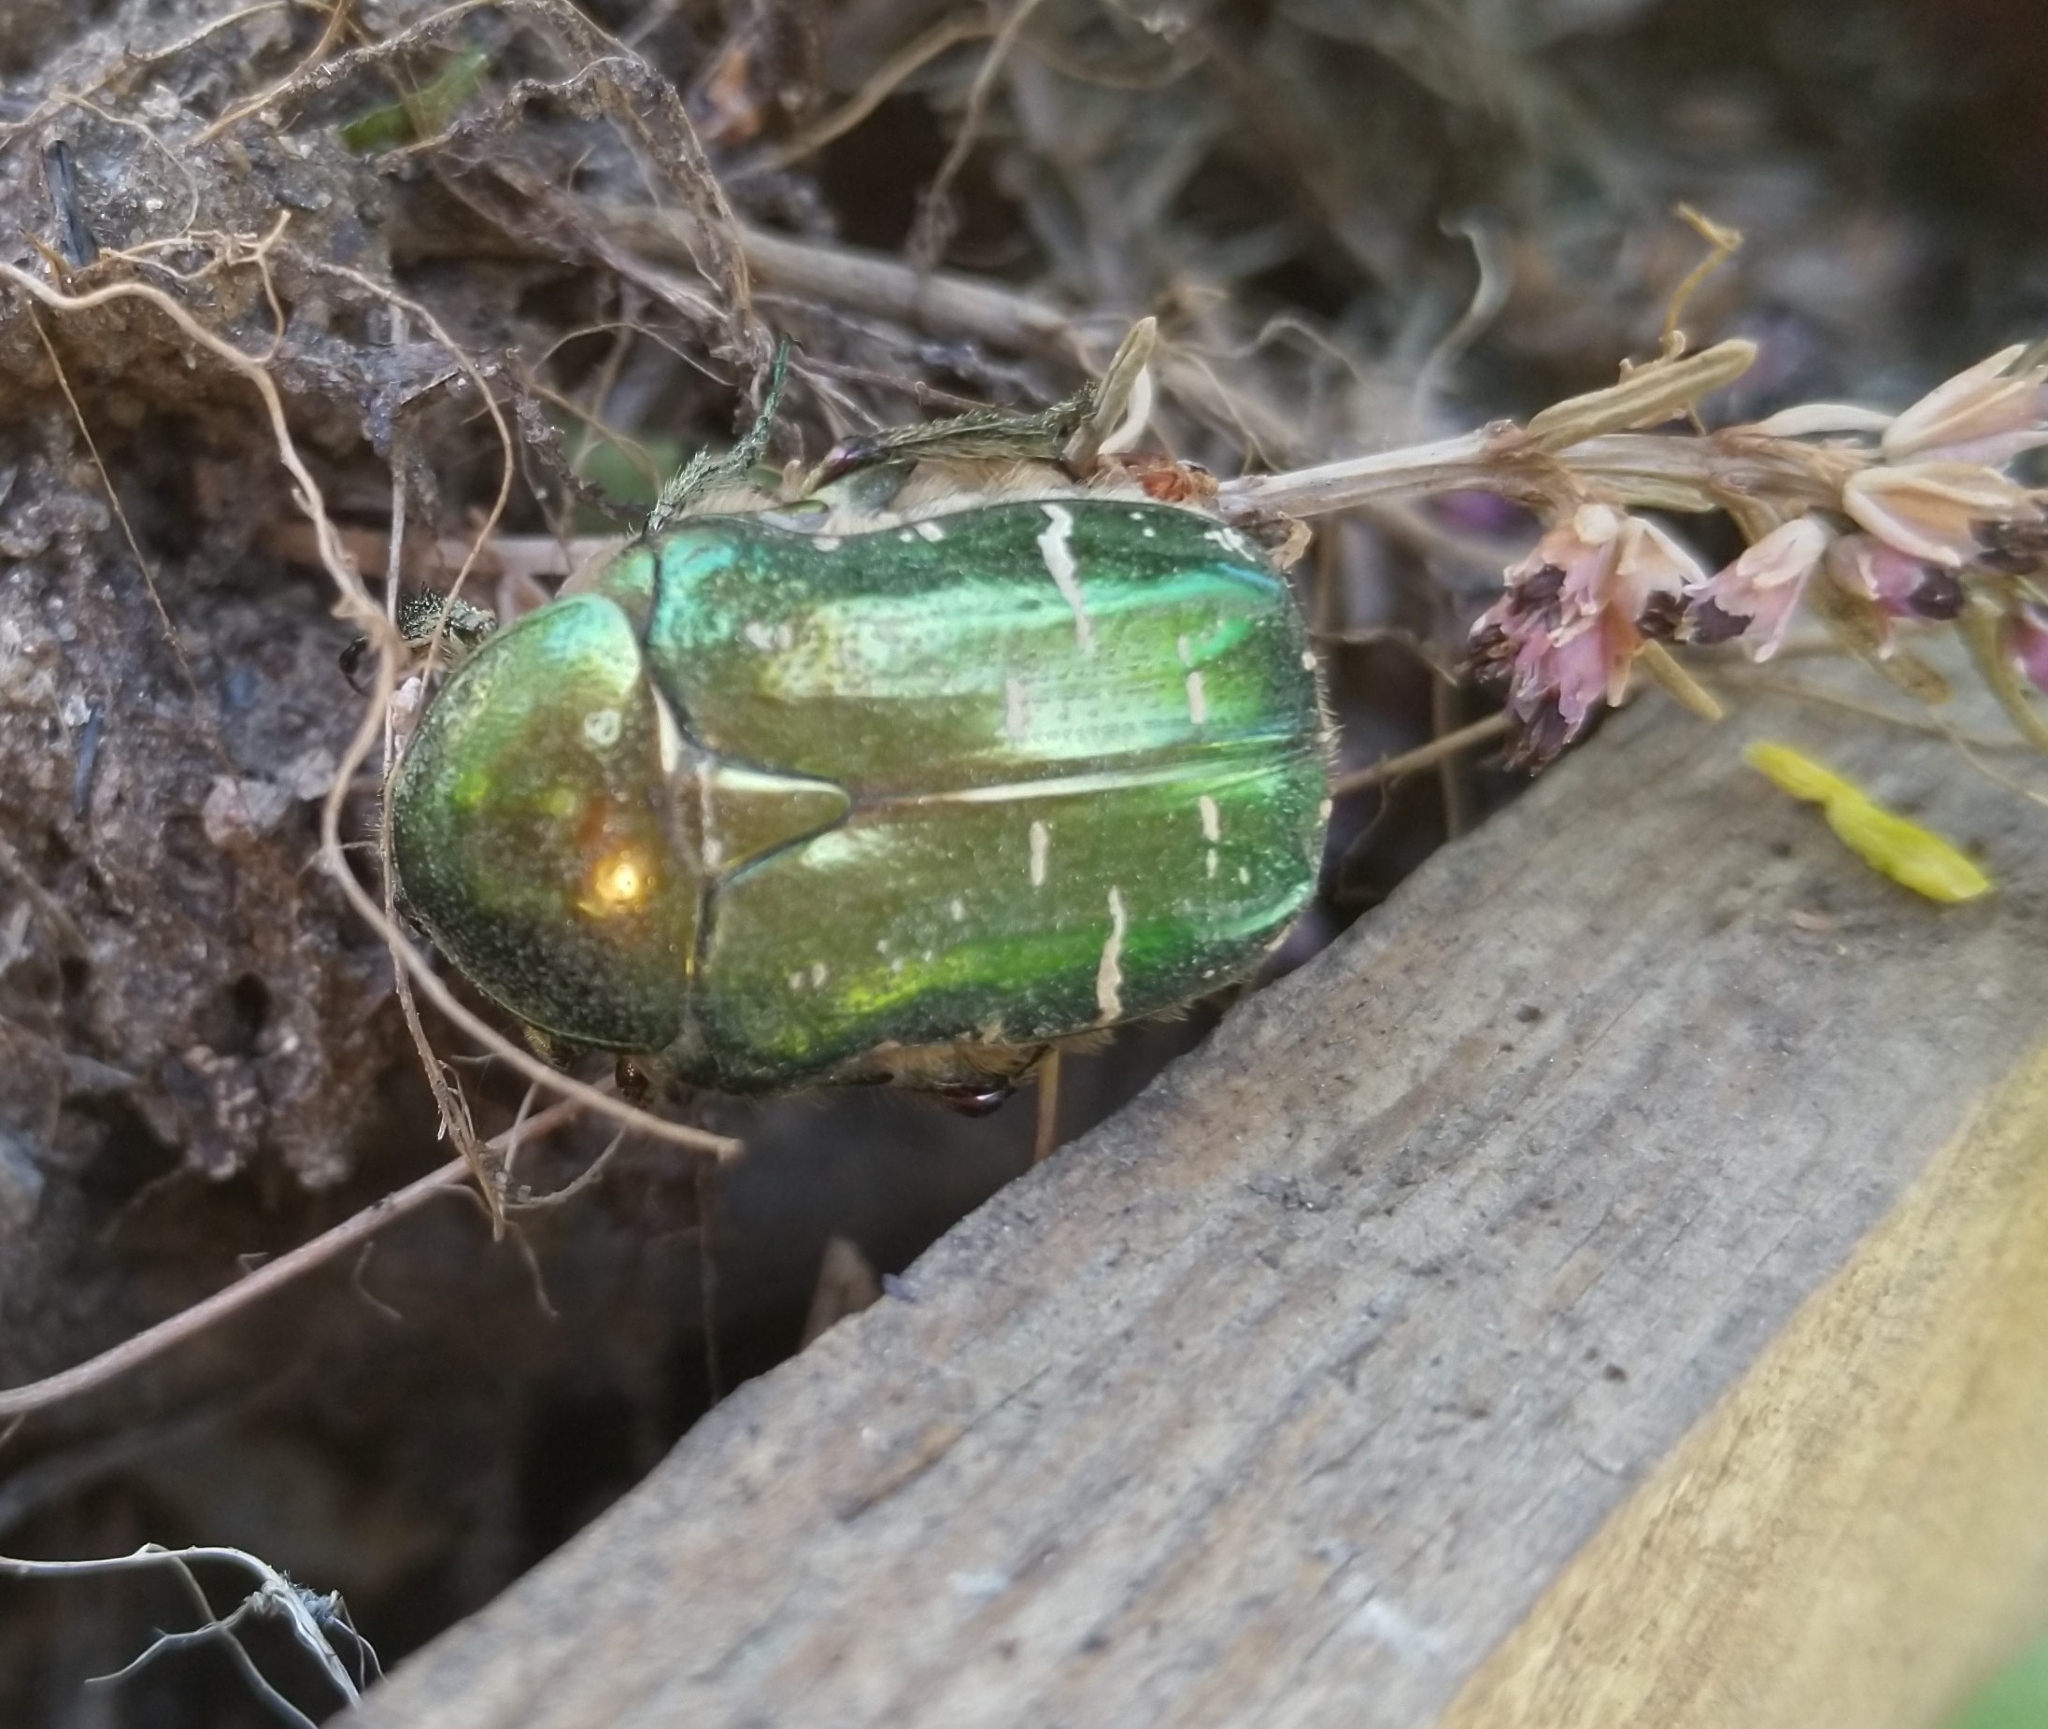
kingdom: Animalia
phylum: Arthropoda
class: Insecta
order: Coleoptera
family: Scarabaeidae
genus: Cetonia
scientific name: Cetonia aurata
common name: Rose chafer
